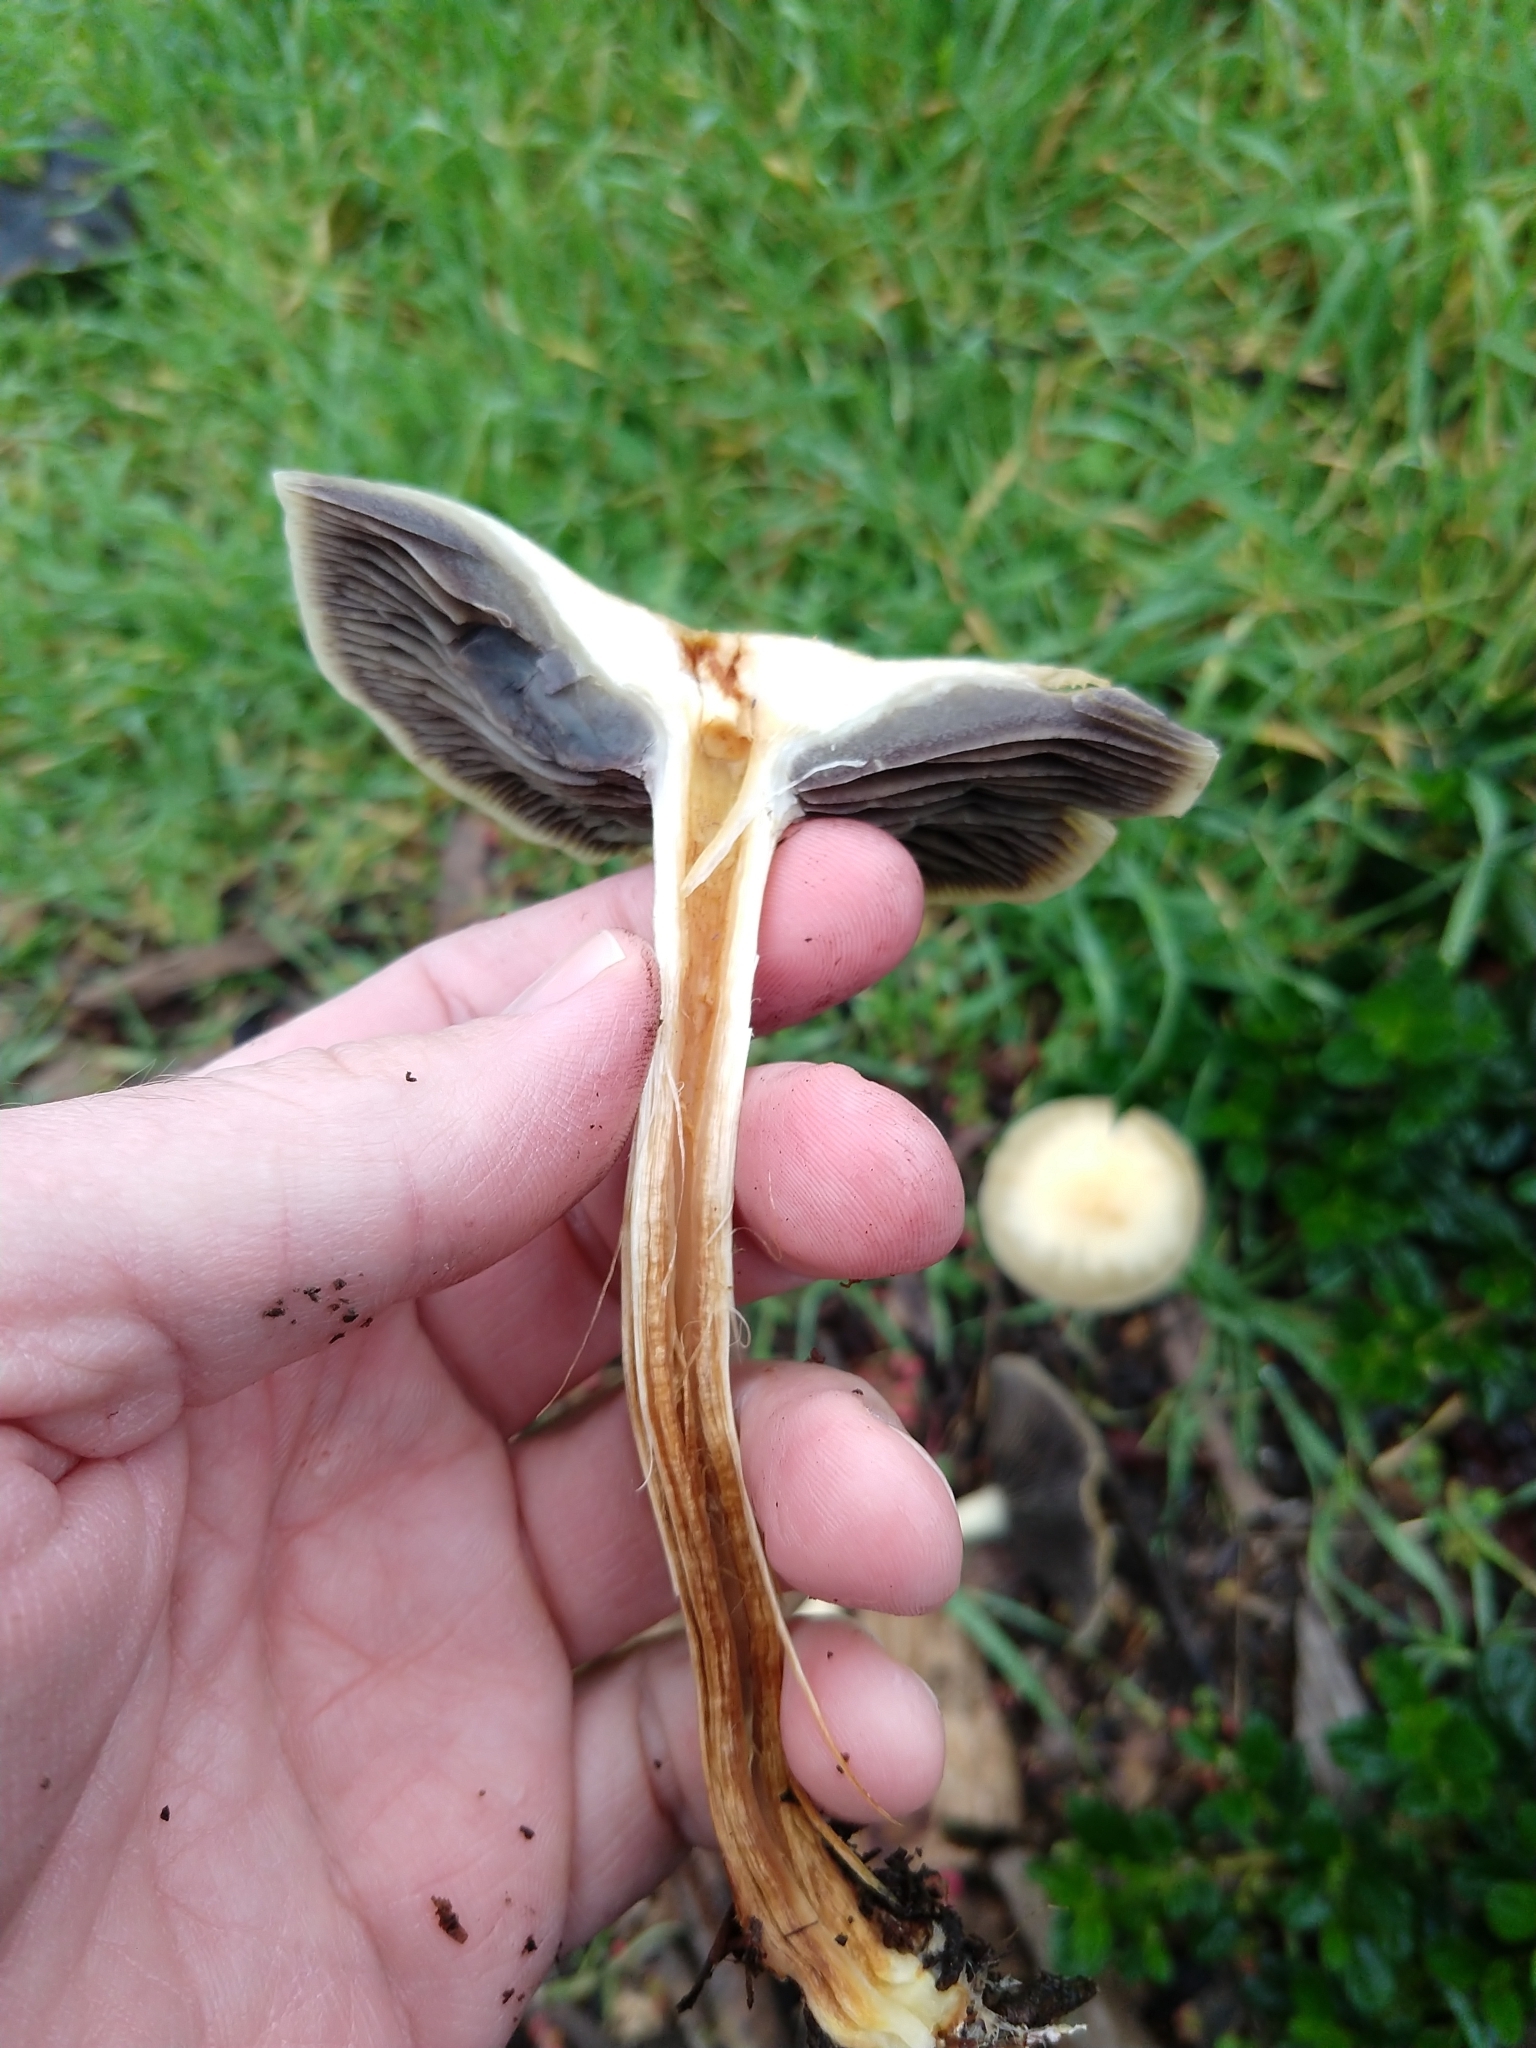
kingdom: Fungi
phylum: Basidiomycota
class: Agaricomycetes
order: Agaricales
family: Strophariaceae
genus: Leratiomyces
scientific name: Leratiomyces percevalii
